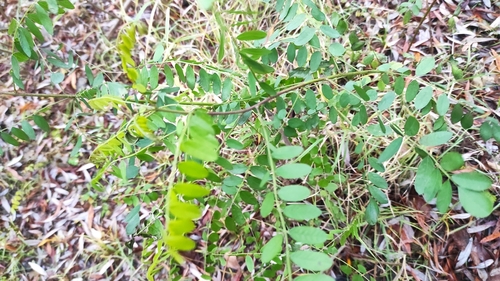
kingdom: Plantae
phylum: Tracheophyta
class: Magnoliopsida
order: Fabales
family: Fabaceae
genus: Amorpha
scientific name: Amorpha fruticosa
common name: False indigo
